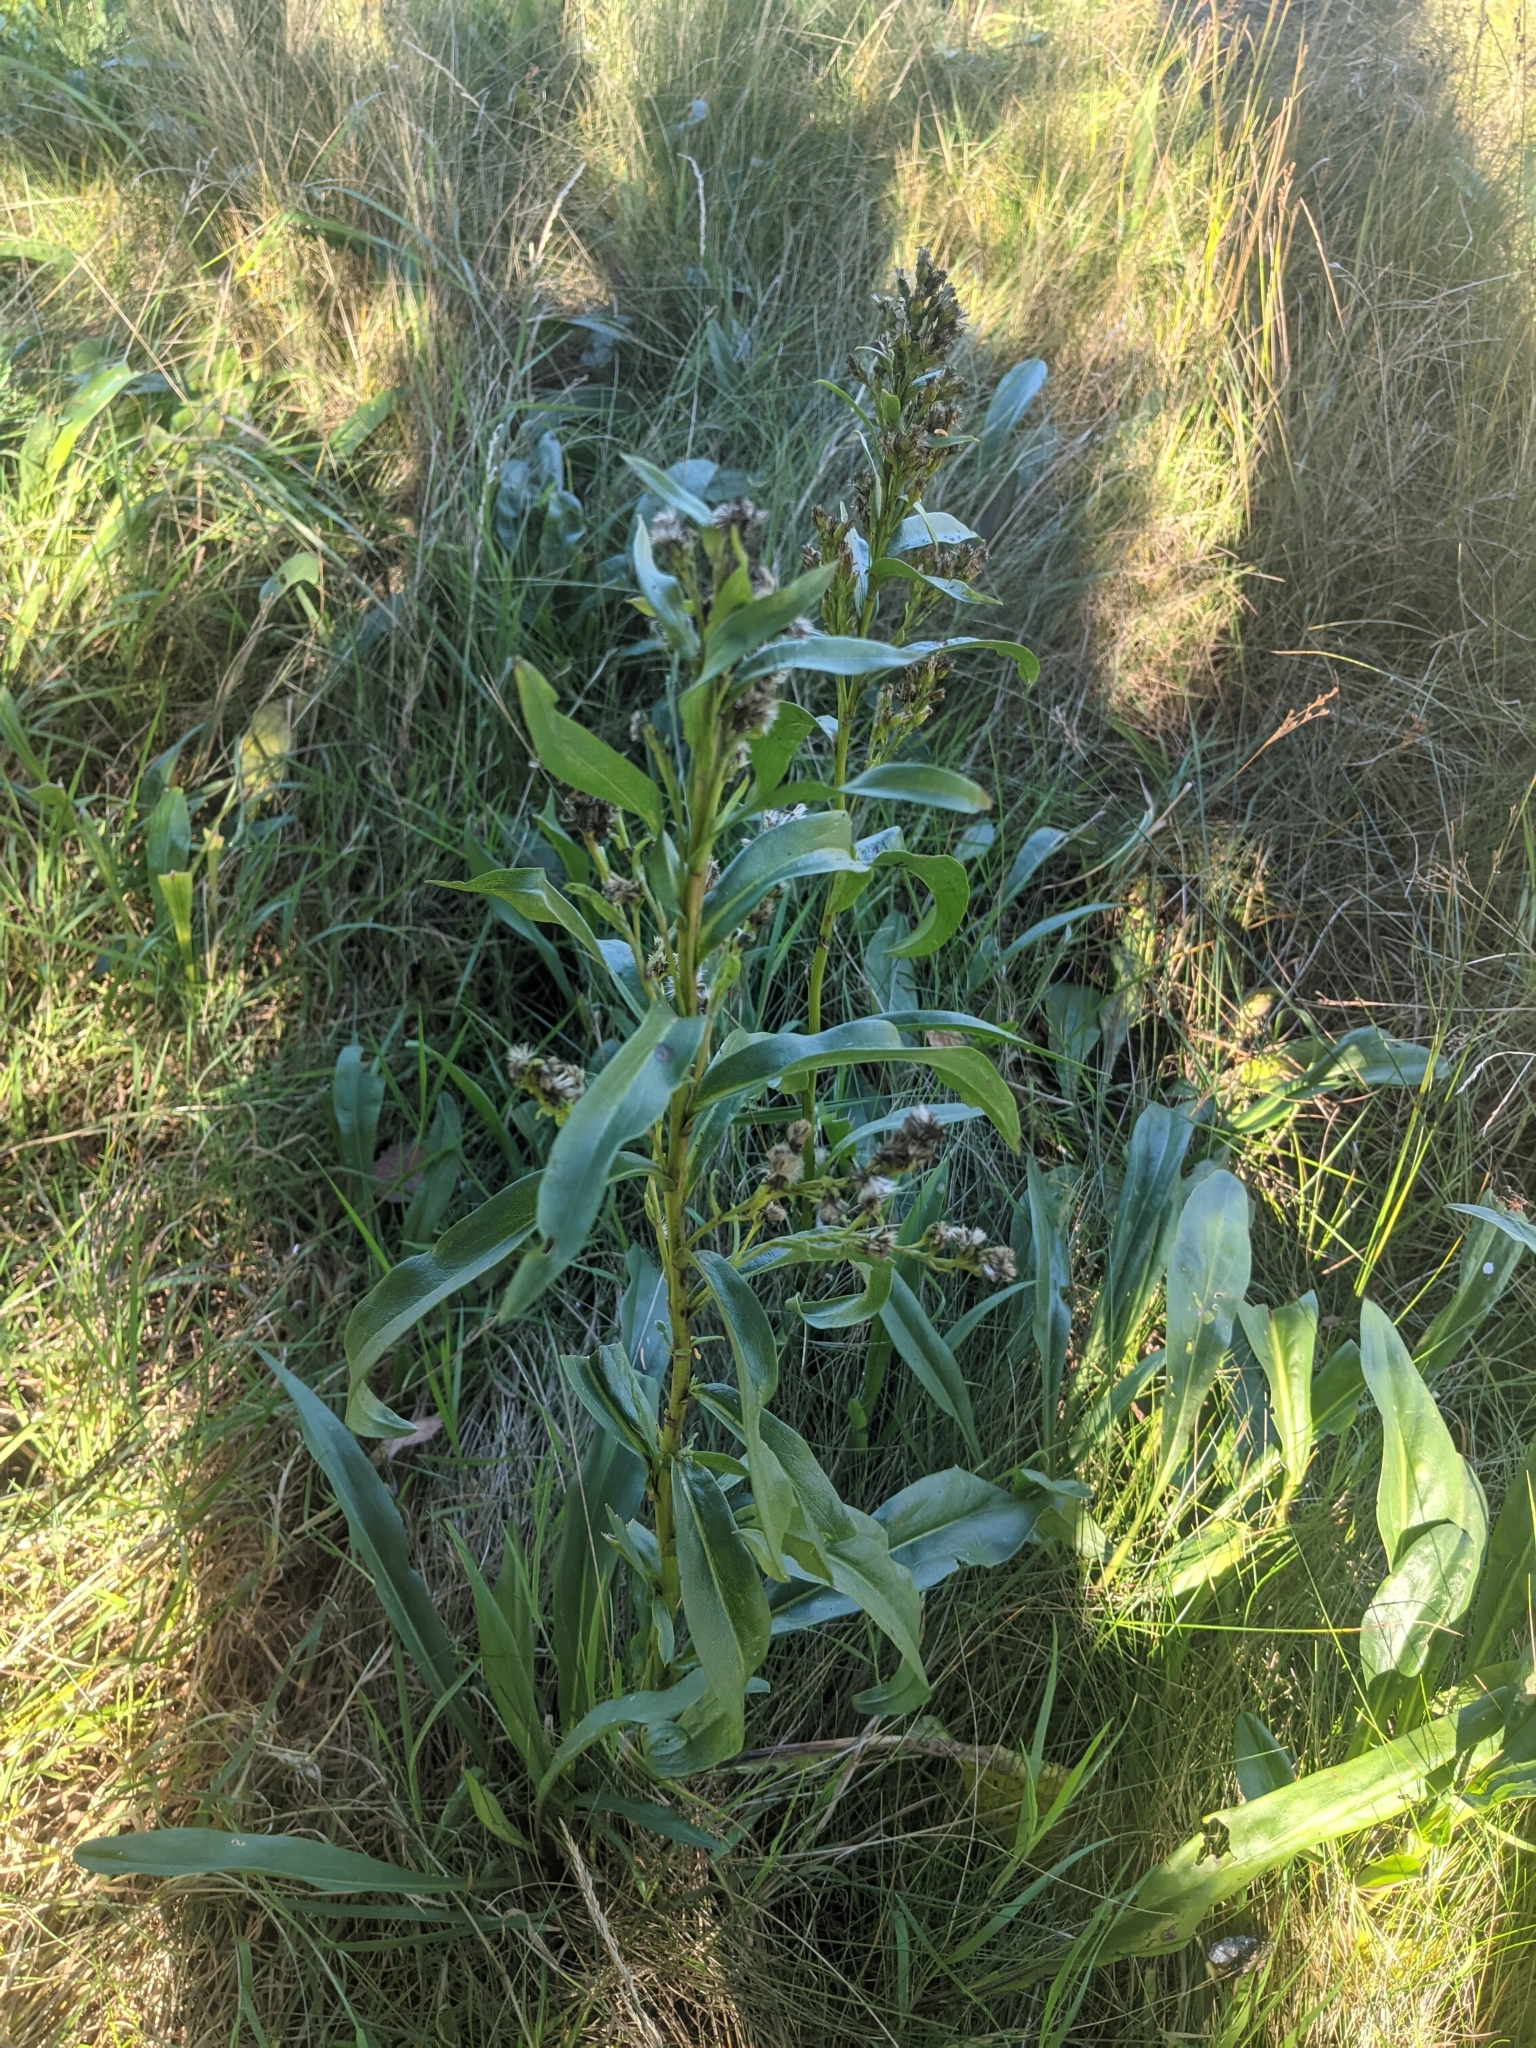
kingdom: Plantae
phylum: Tracheophyta
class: Magnoliopsida
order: Asterales
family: Asteraceae
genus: Solidago
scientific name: Solidago sempervirens
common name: Salt-marsh goldenrod
